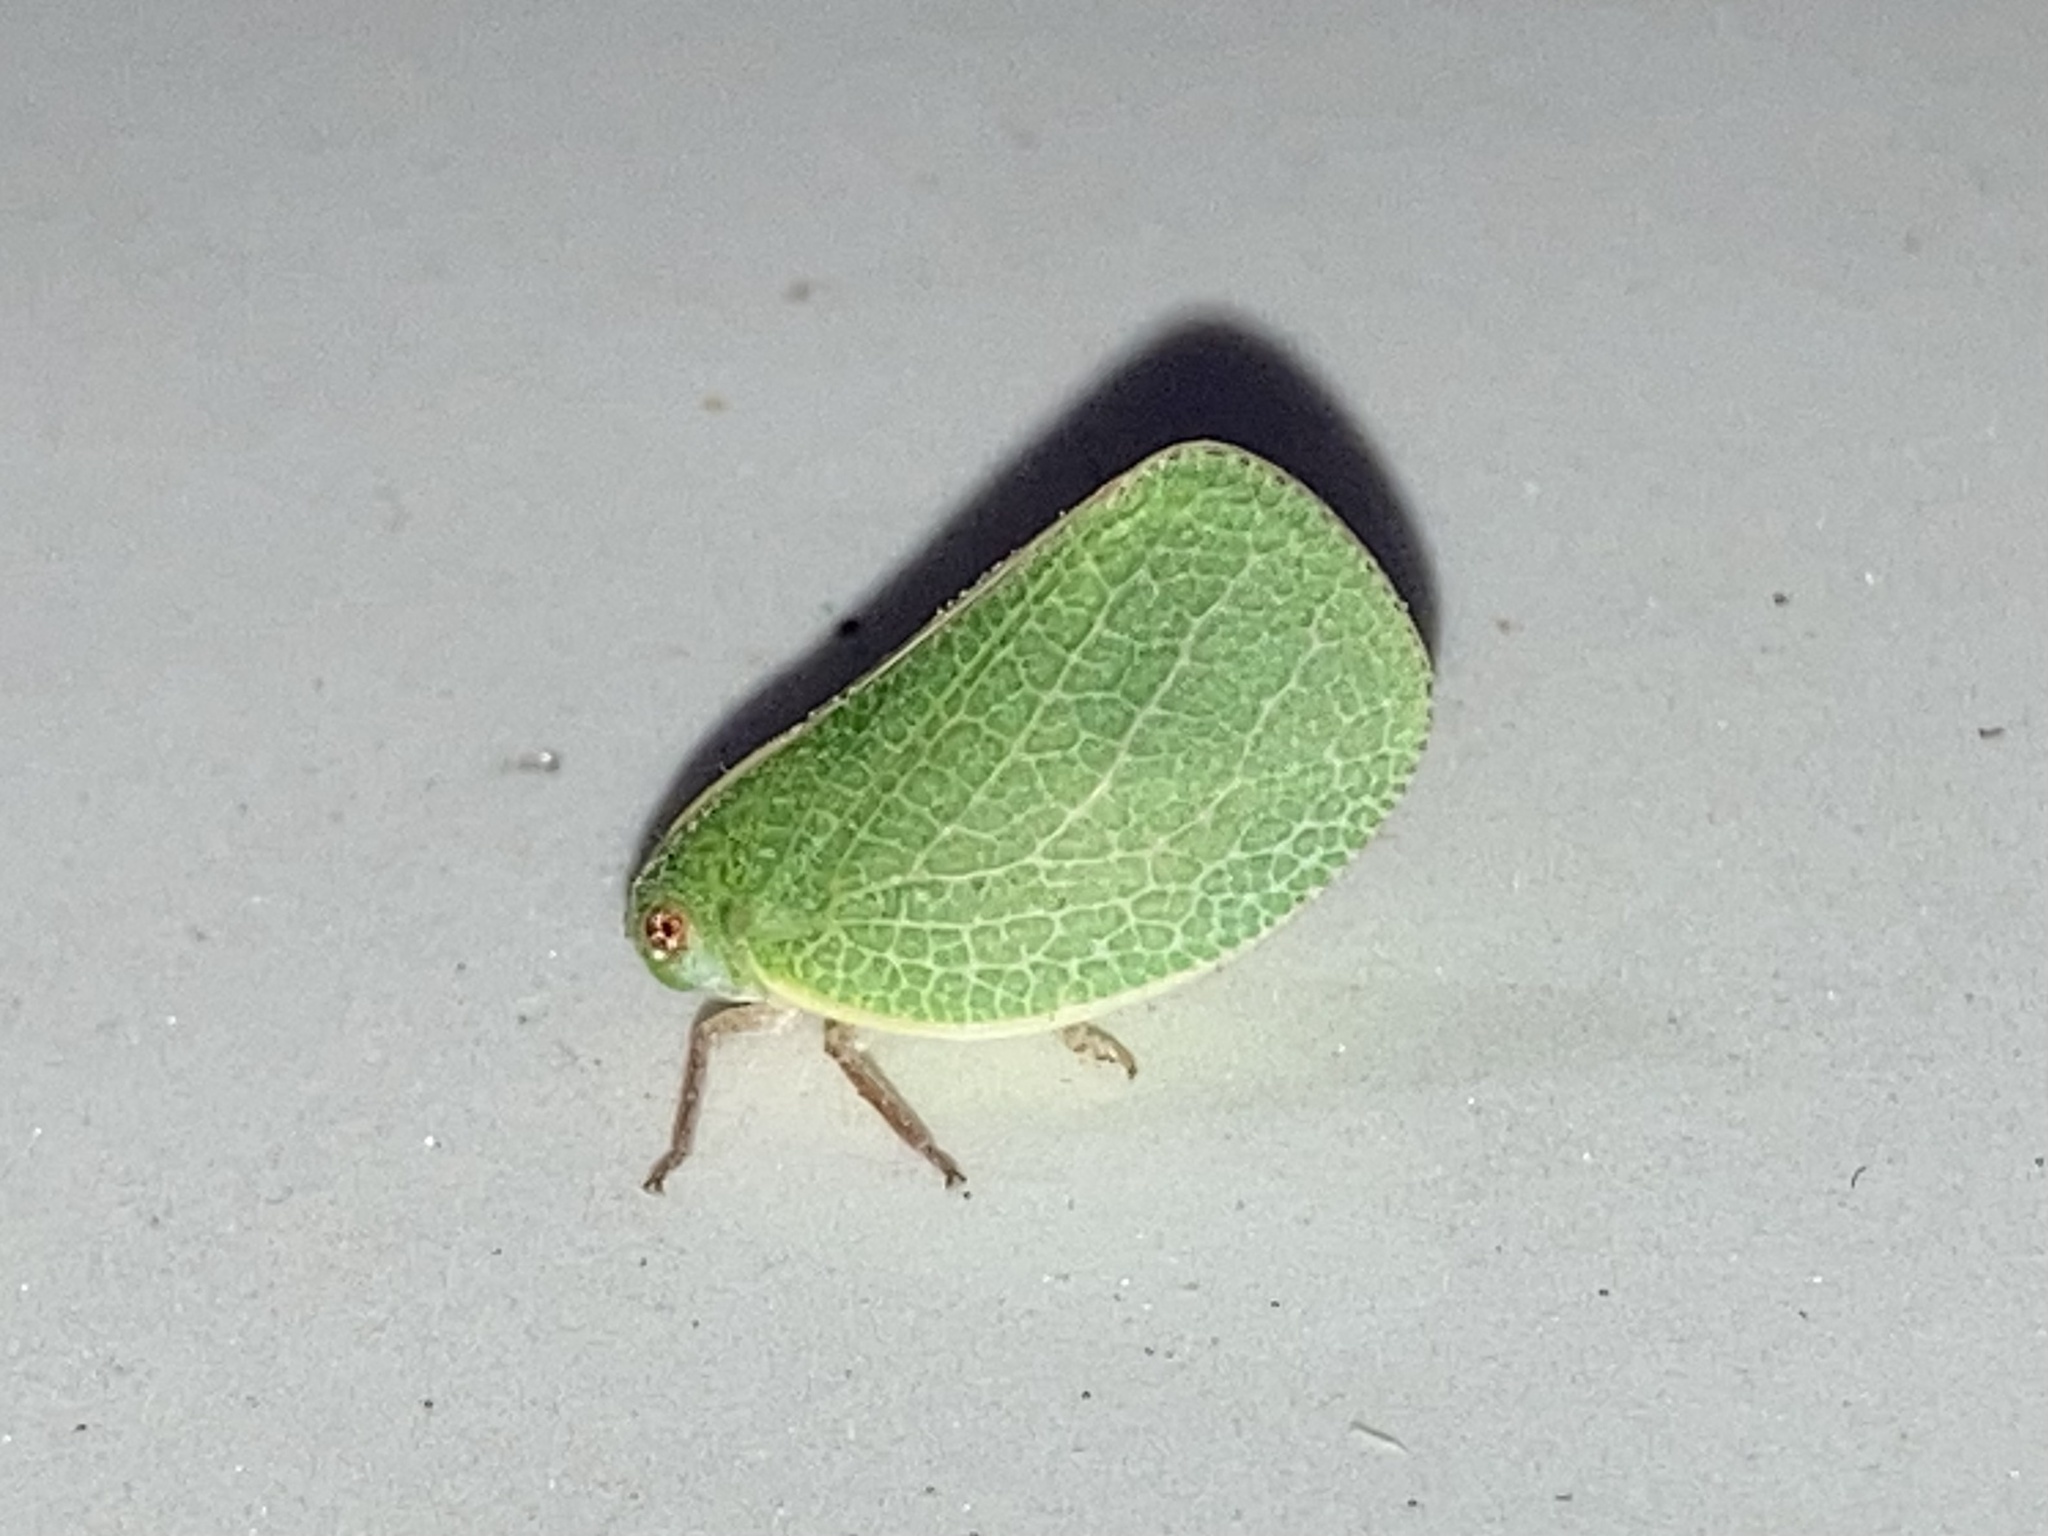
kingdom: Animalia
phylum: Arthropoda
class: Insecta
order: Hemiptera
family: Acanaloniidae
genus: Acanalonia
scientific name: Acanalonia servillei
